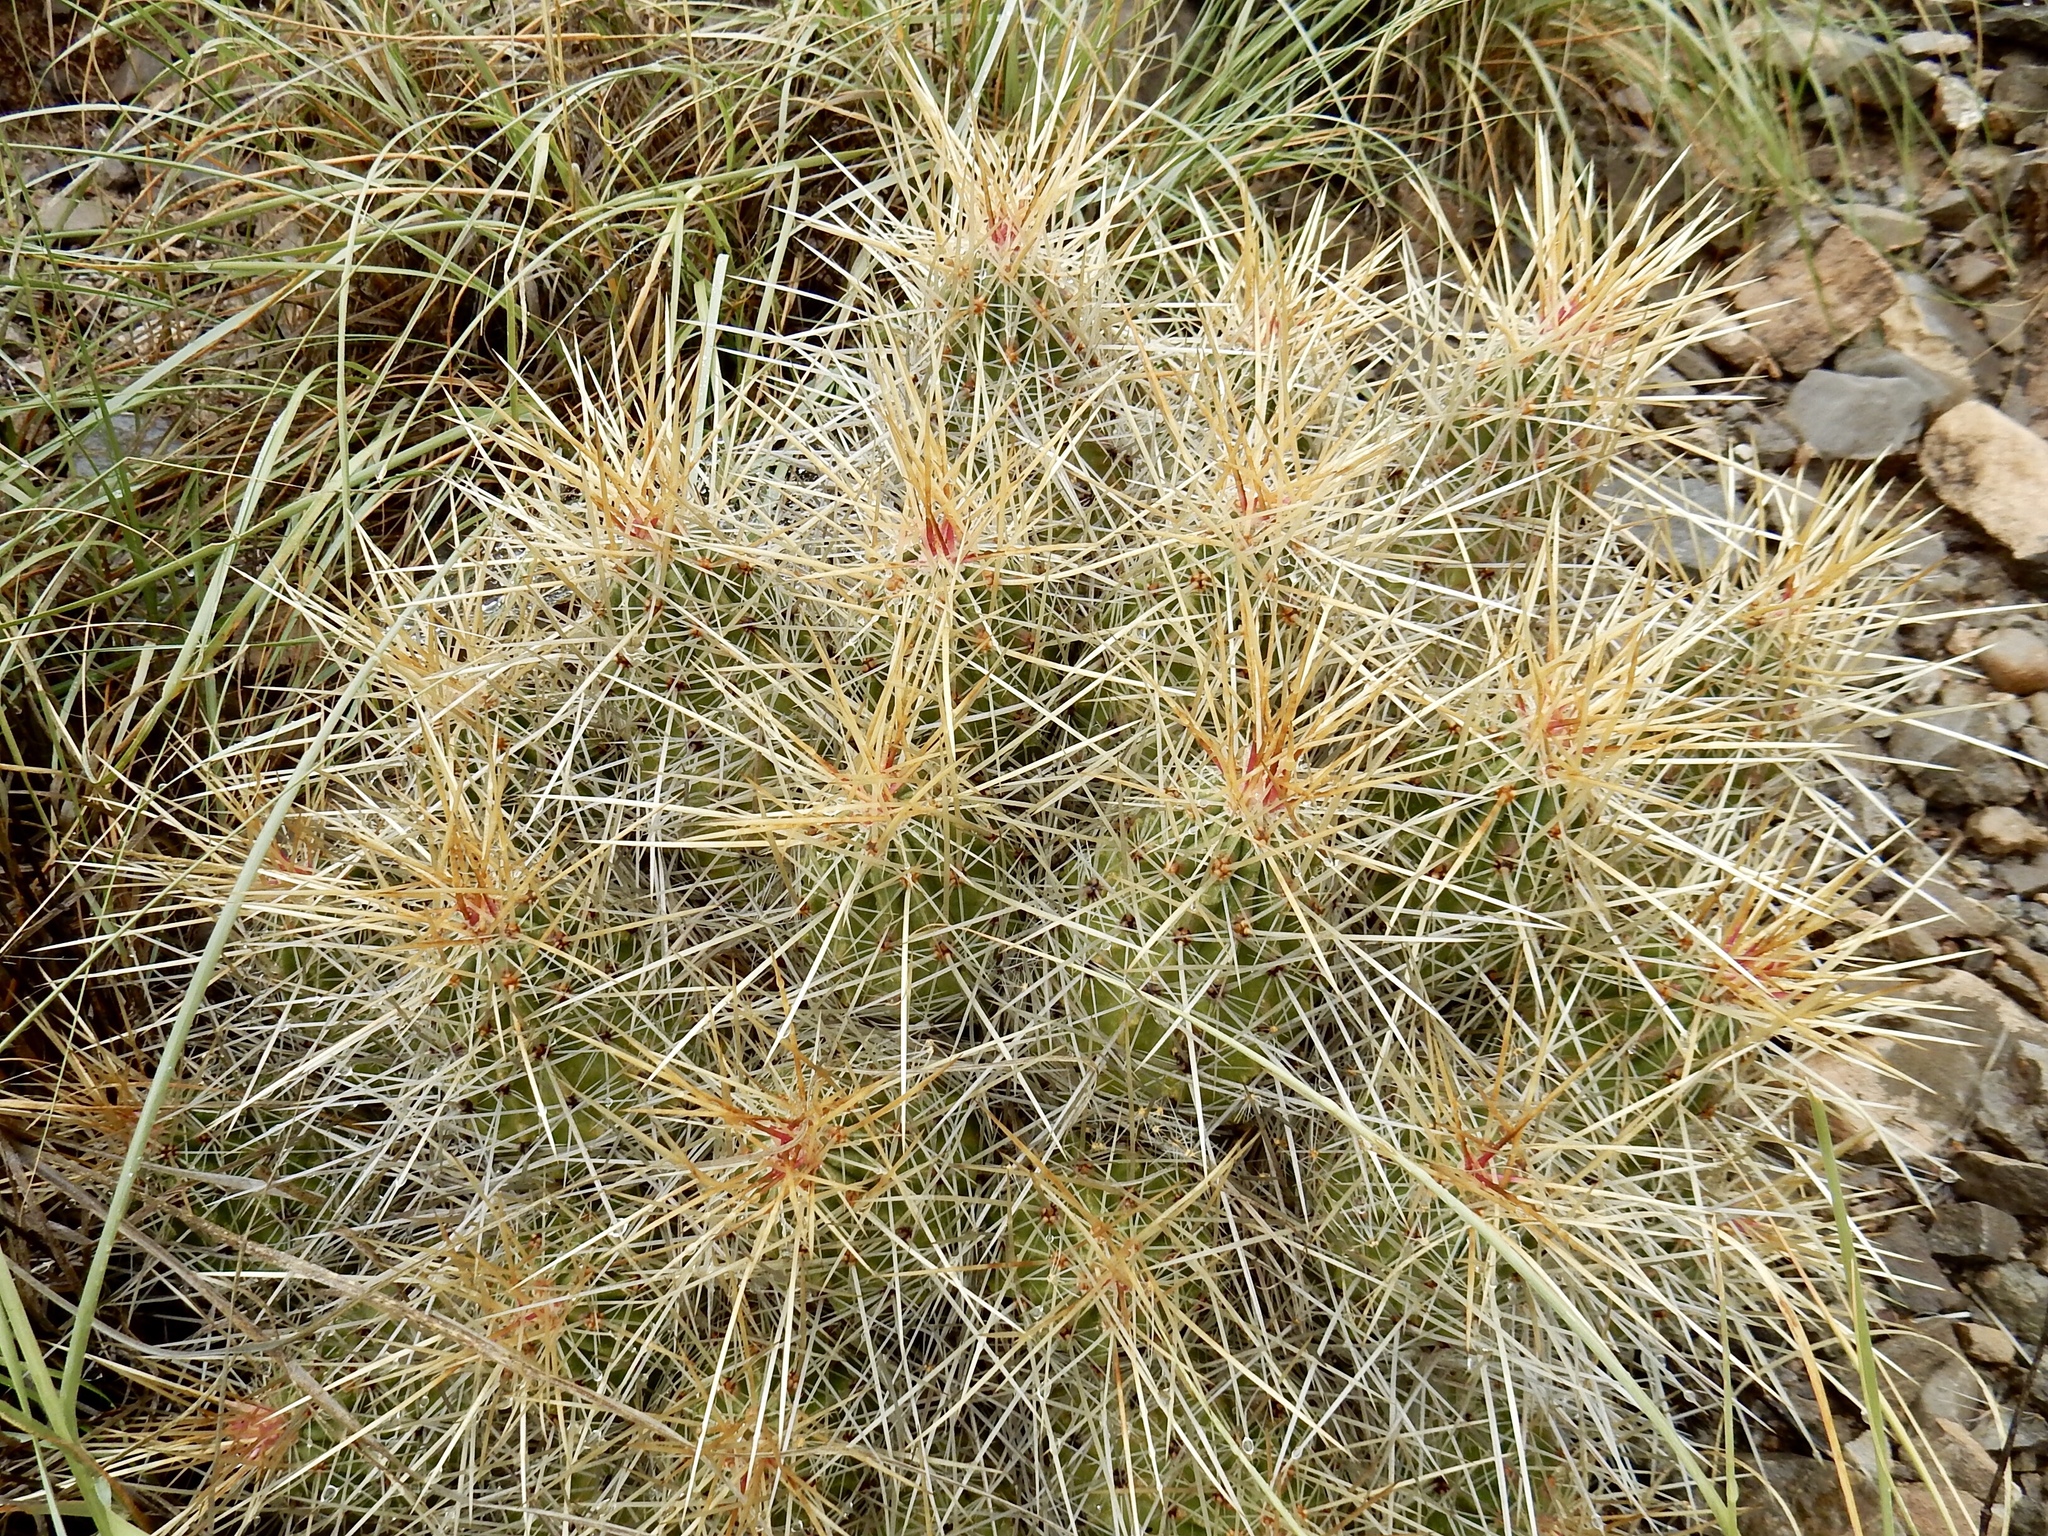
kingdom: Plantae
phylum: Tracheophyta
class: Magnoliopsida
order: Caryophyllales
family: Cactaceae
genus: Echinocereus
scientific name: Echinocereus stramineus
